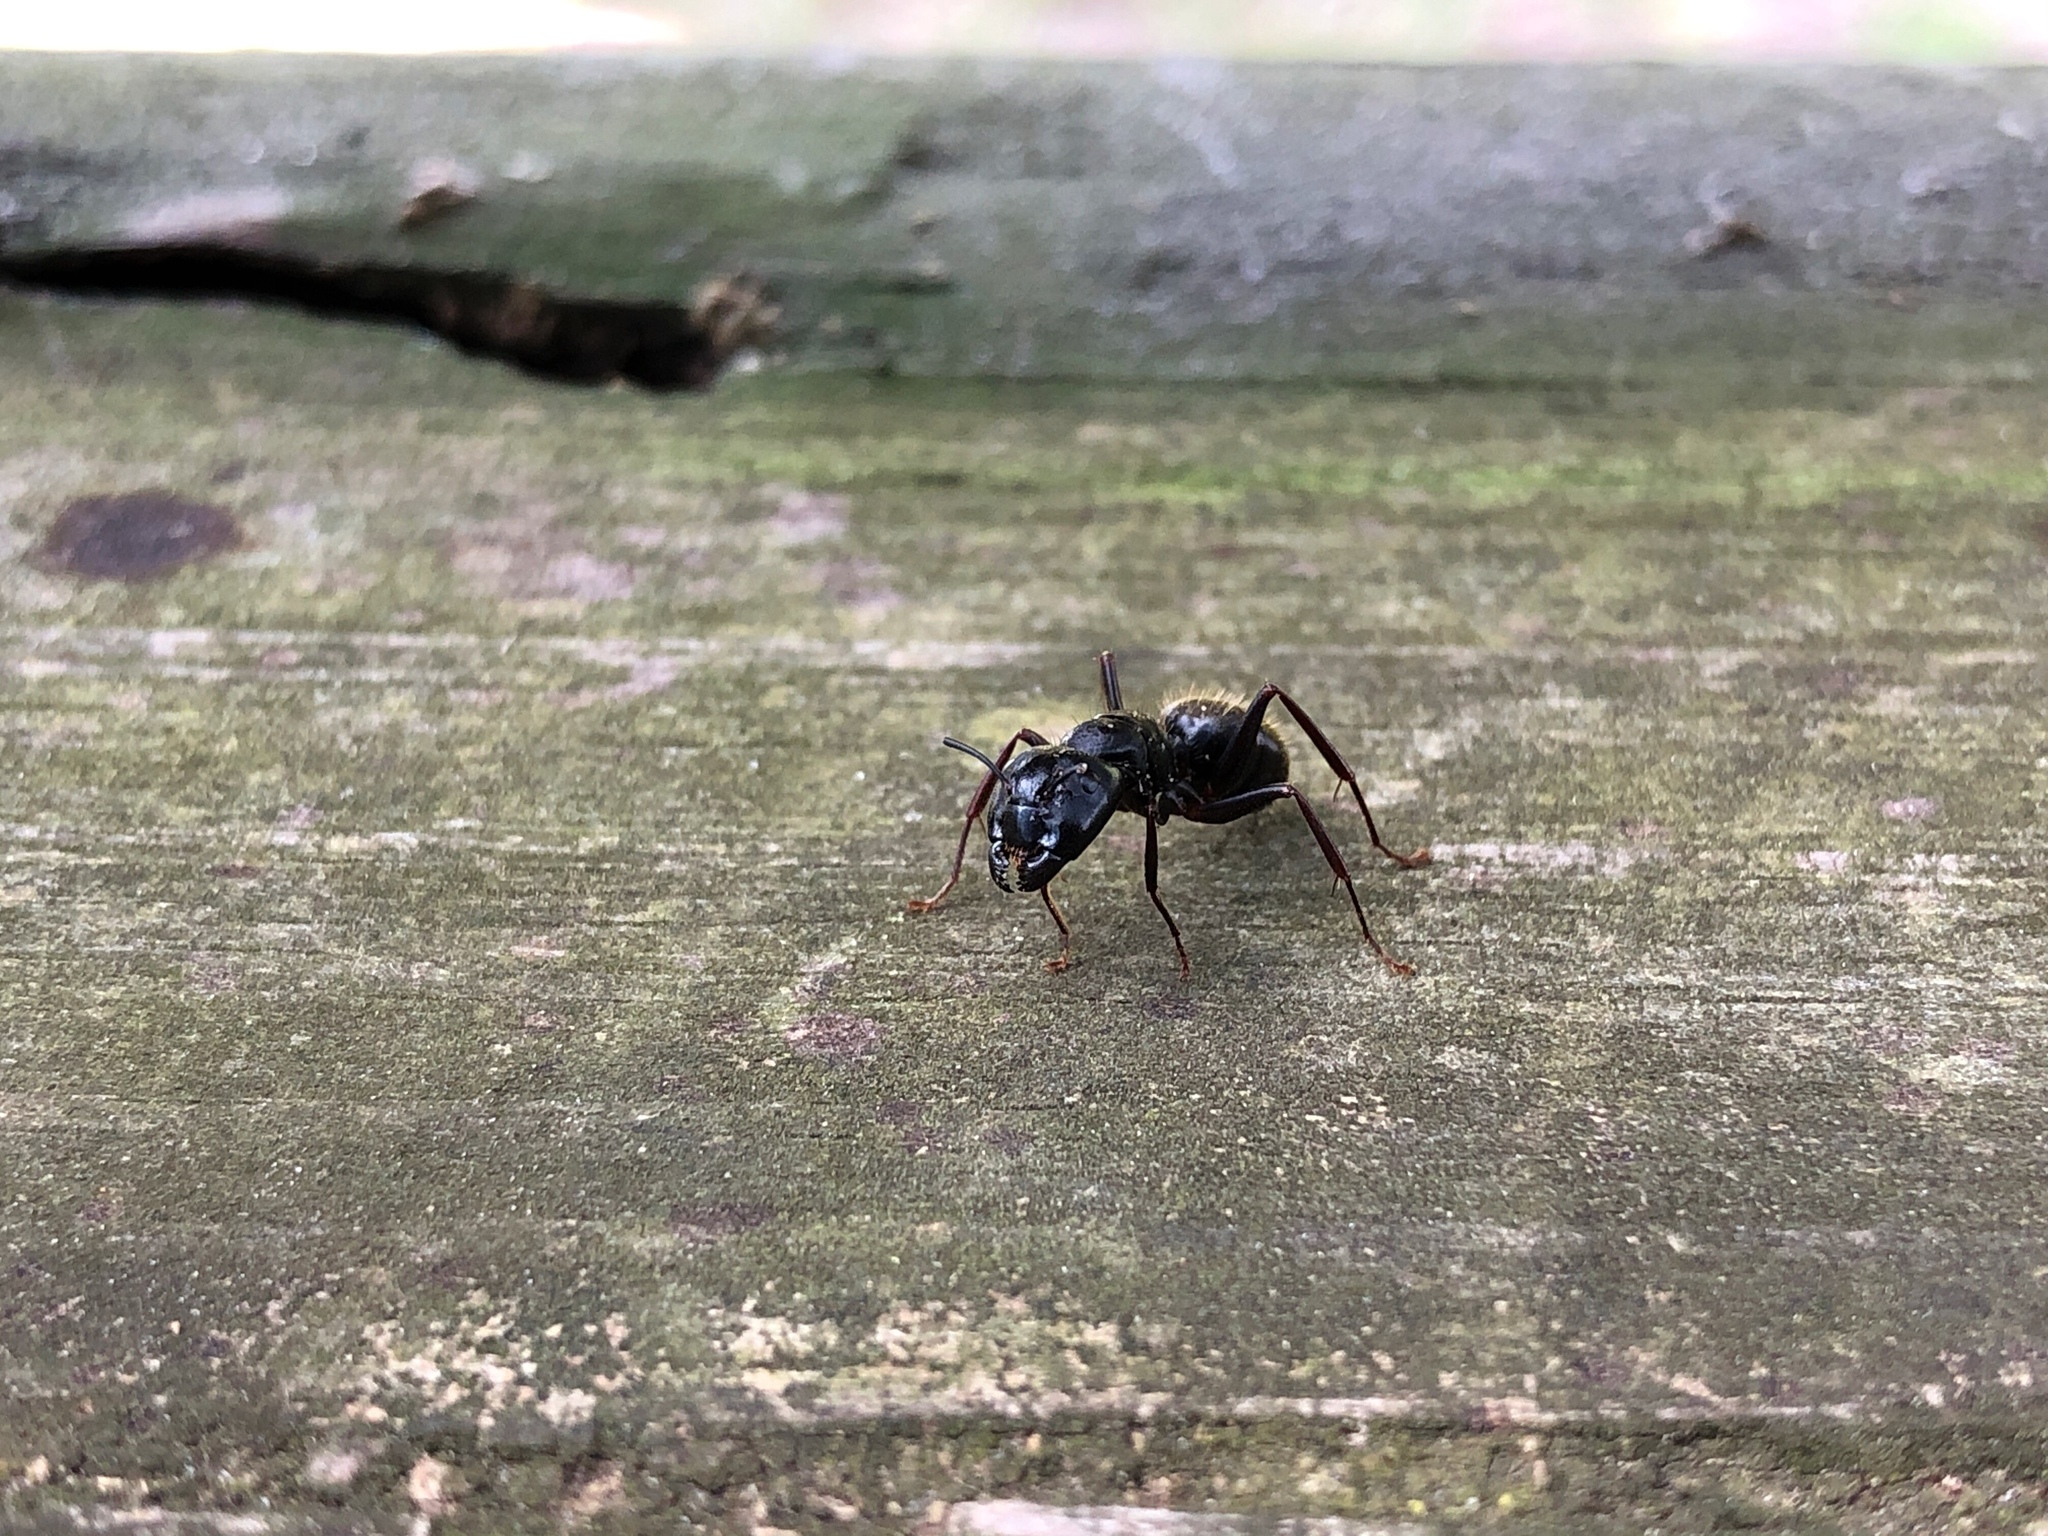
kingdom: Animalia
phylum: Arthropoda
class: Insecta
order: Hymenoptera
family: Formicidae
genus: Camponotus
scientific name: Camponotus pennsylvanicus
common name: Black carpenter ant
